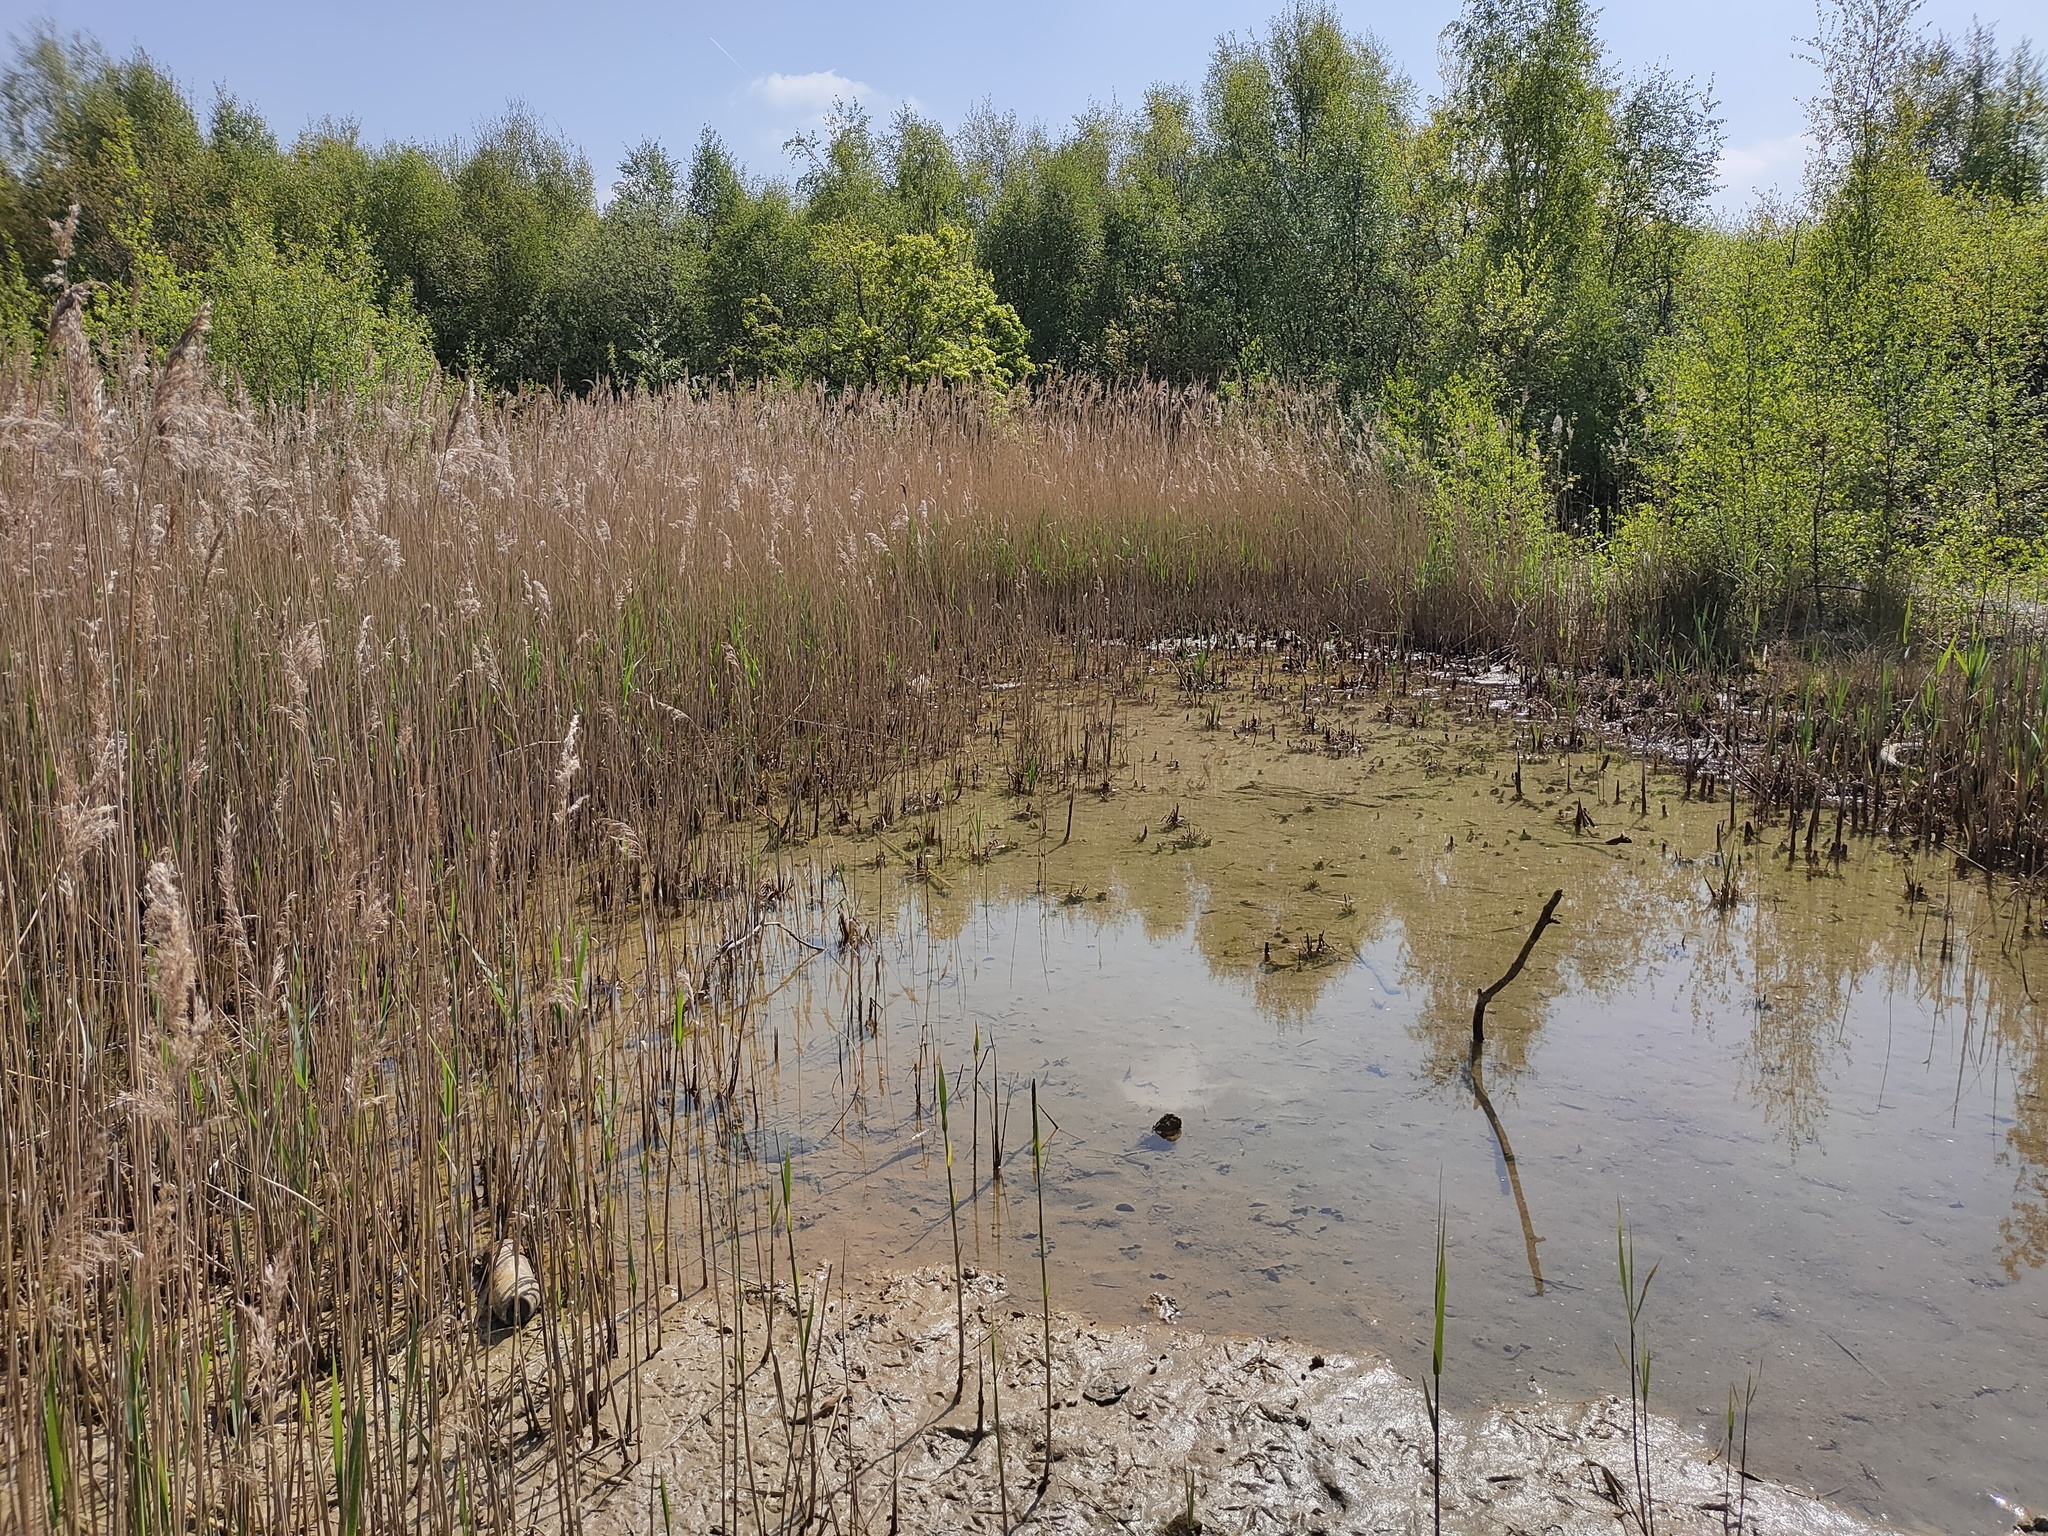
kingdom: Plantae
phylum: Tracheophyta
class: Liliopsida
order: Poales
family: Poaceae
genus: Phragmites
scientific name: Phragmites australis
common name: Common reed
